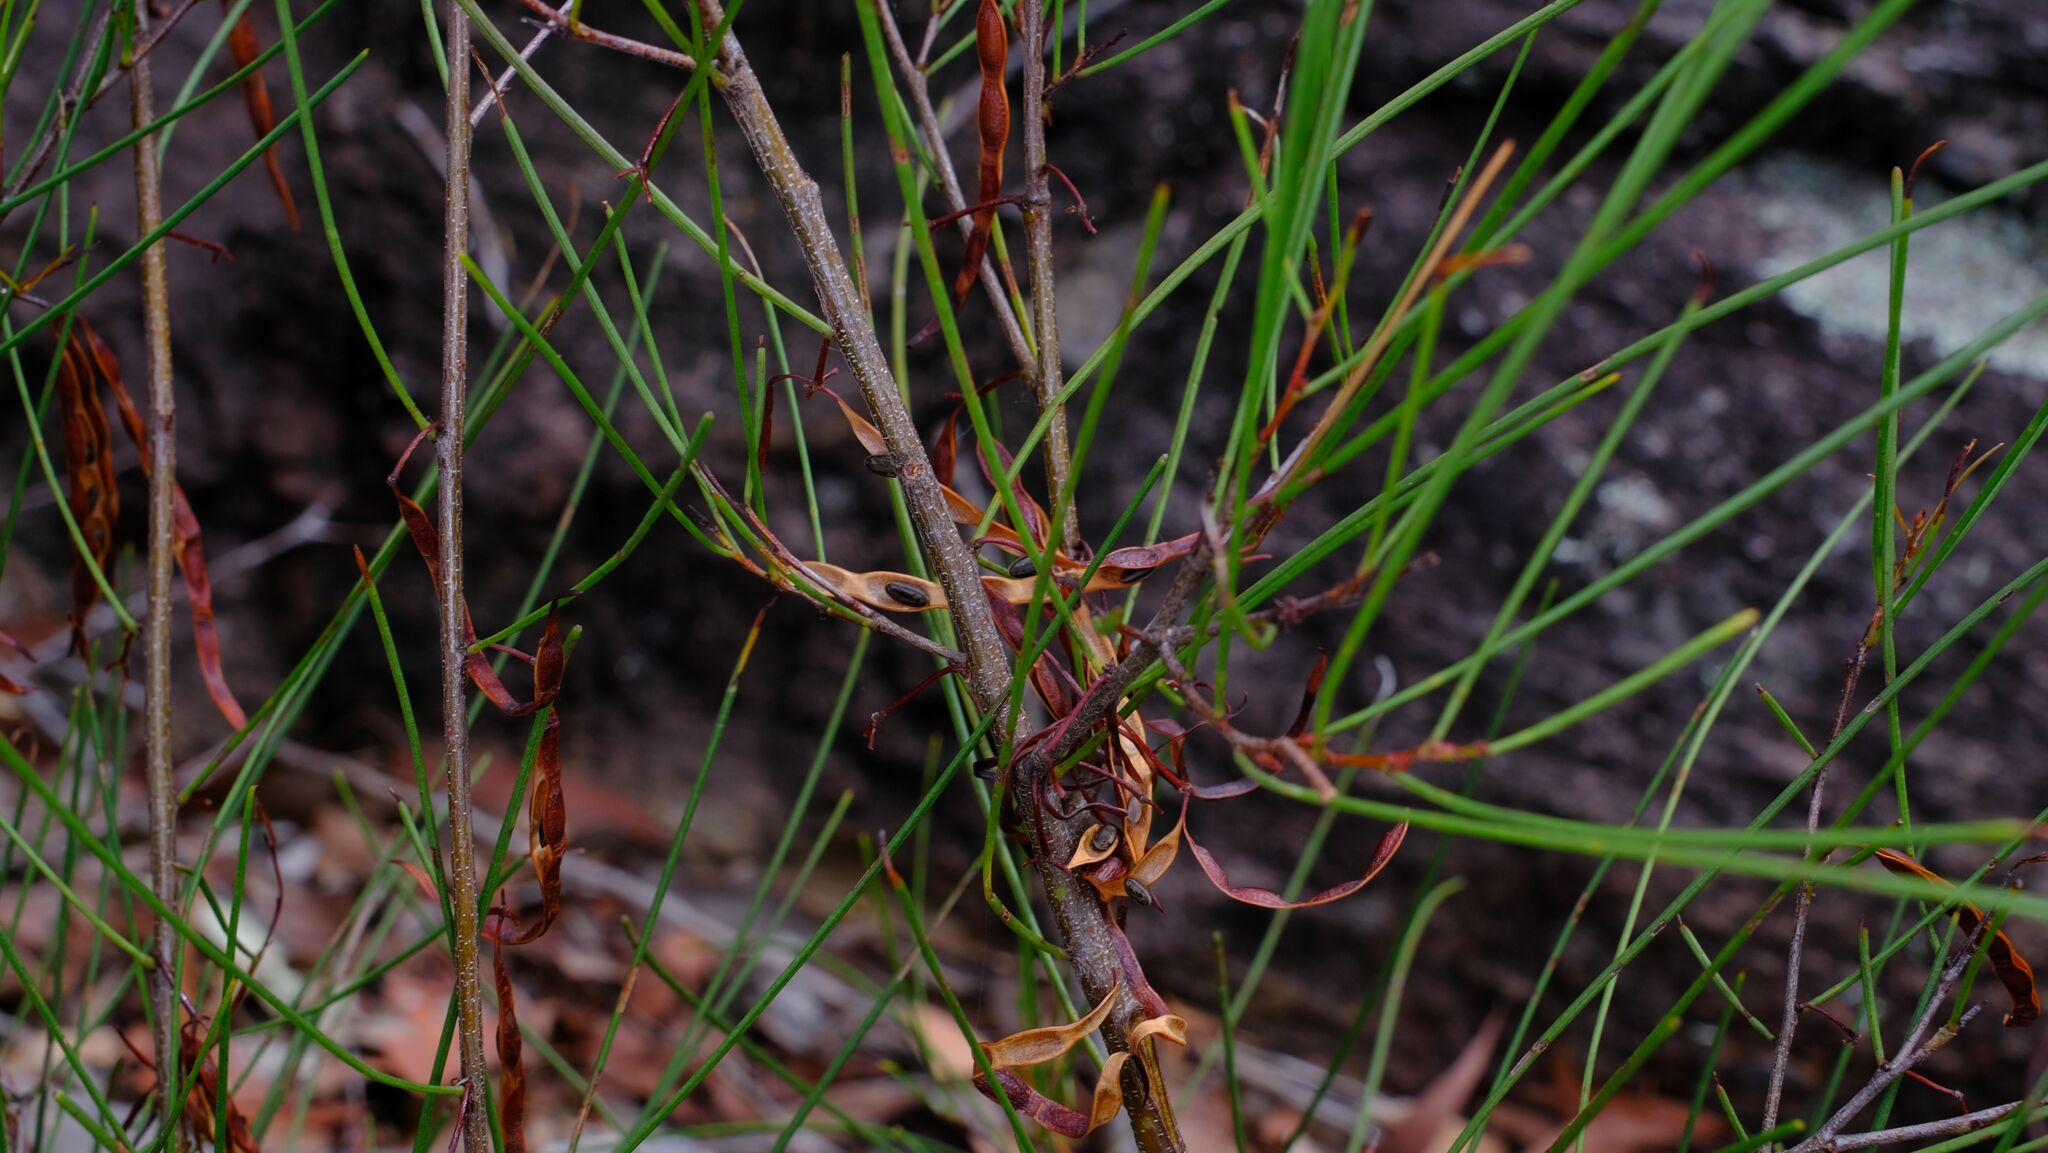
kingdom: Plantae
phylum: Tracheophyta
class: Magnoliopsida
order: Fabales
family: Fabaceae
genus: Acacia
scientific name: Acacia juncifolia
